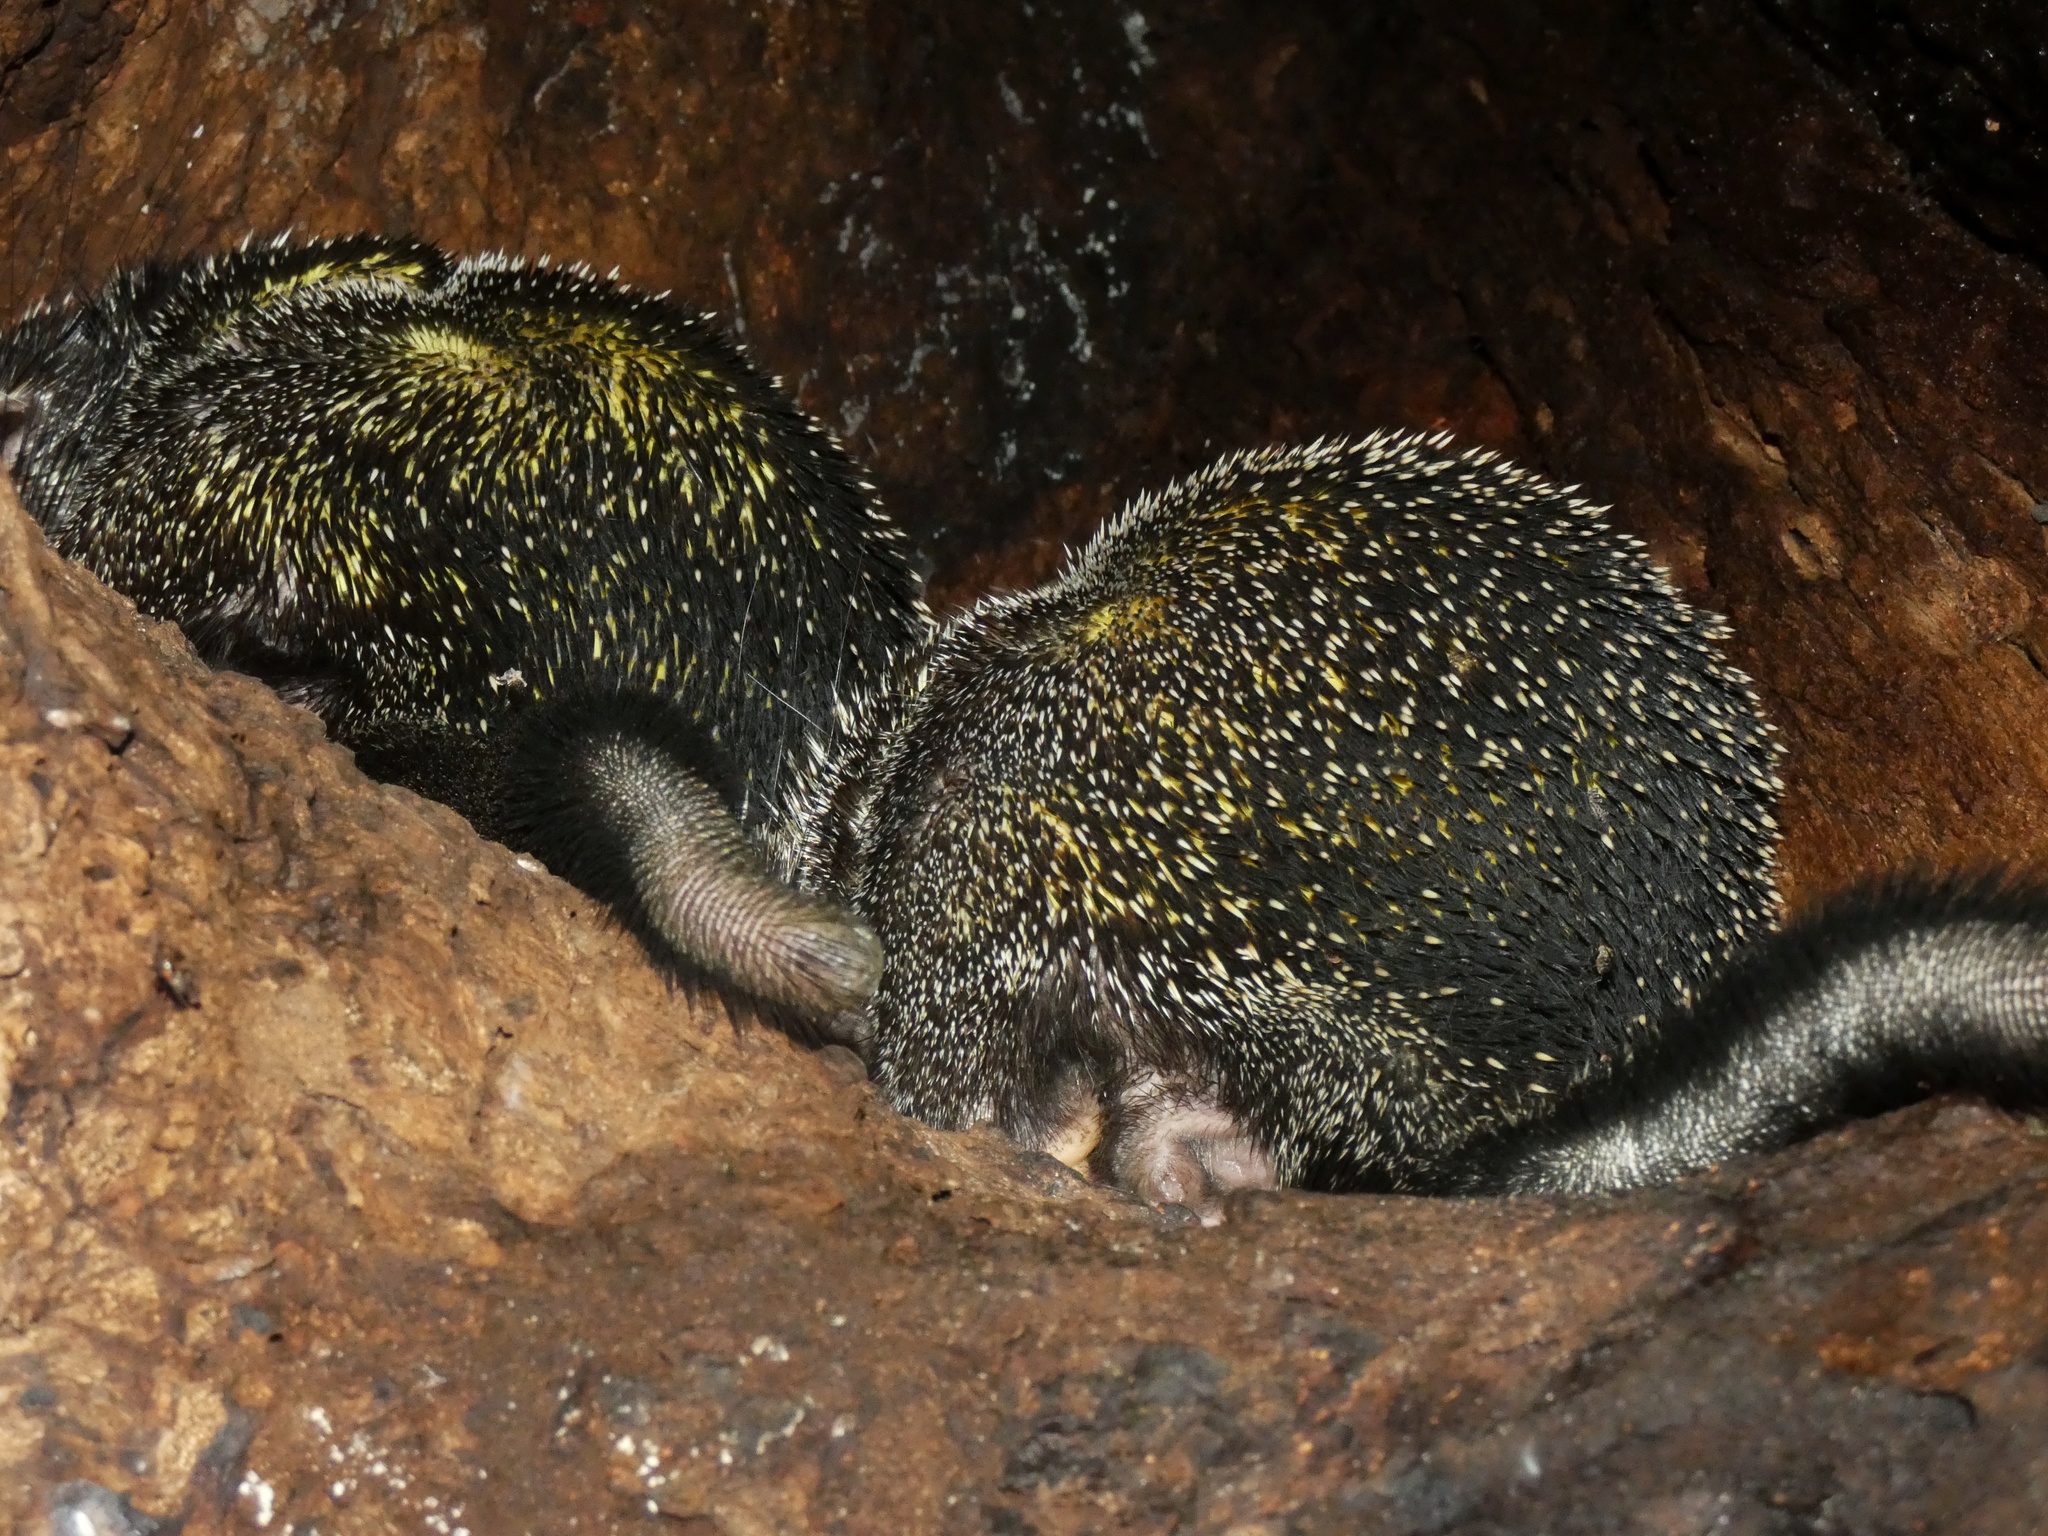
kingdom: Animalia
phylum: Chordata
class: Mammalia
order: Rodentia
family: Erethizontidae
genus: Coendou
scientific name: Coendou quichua
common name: Quichua porcupine
